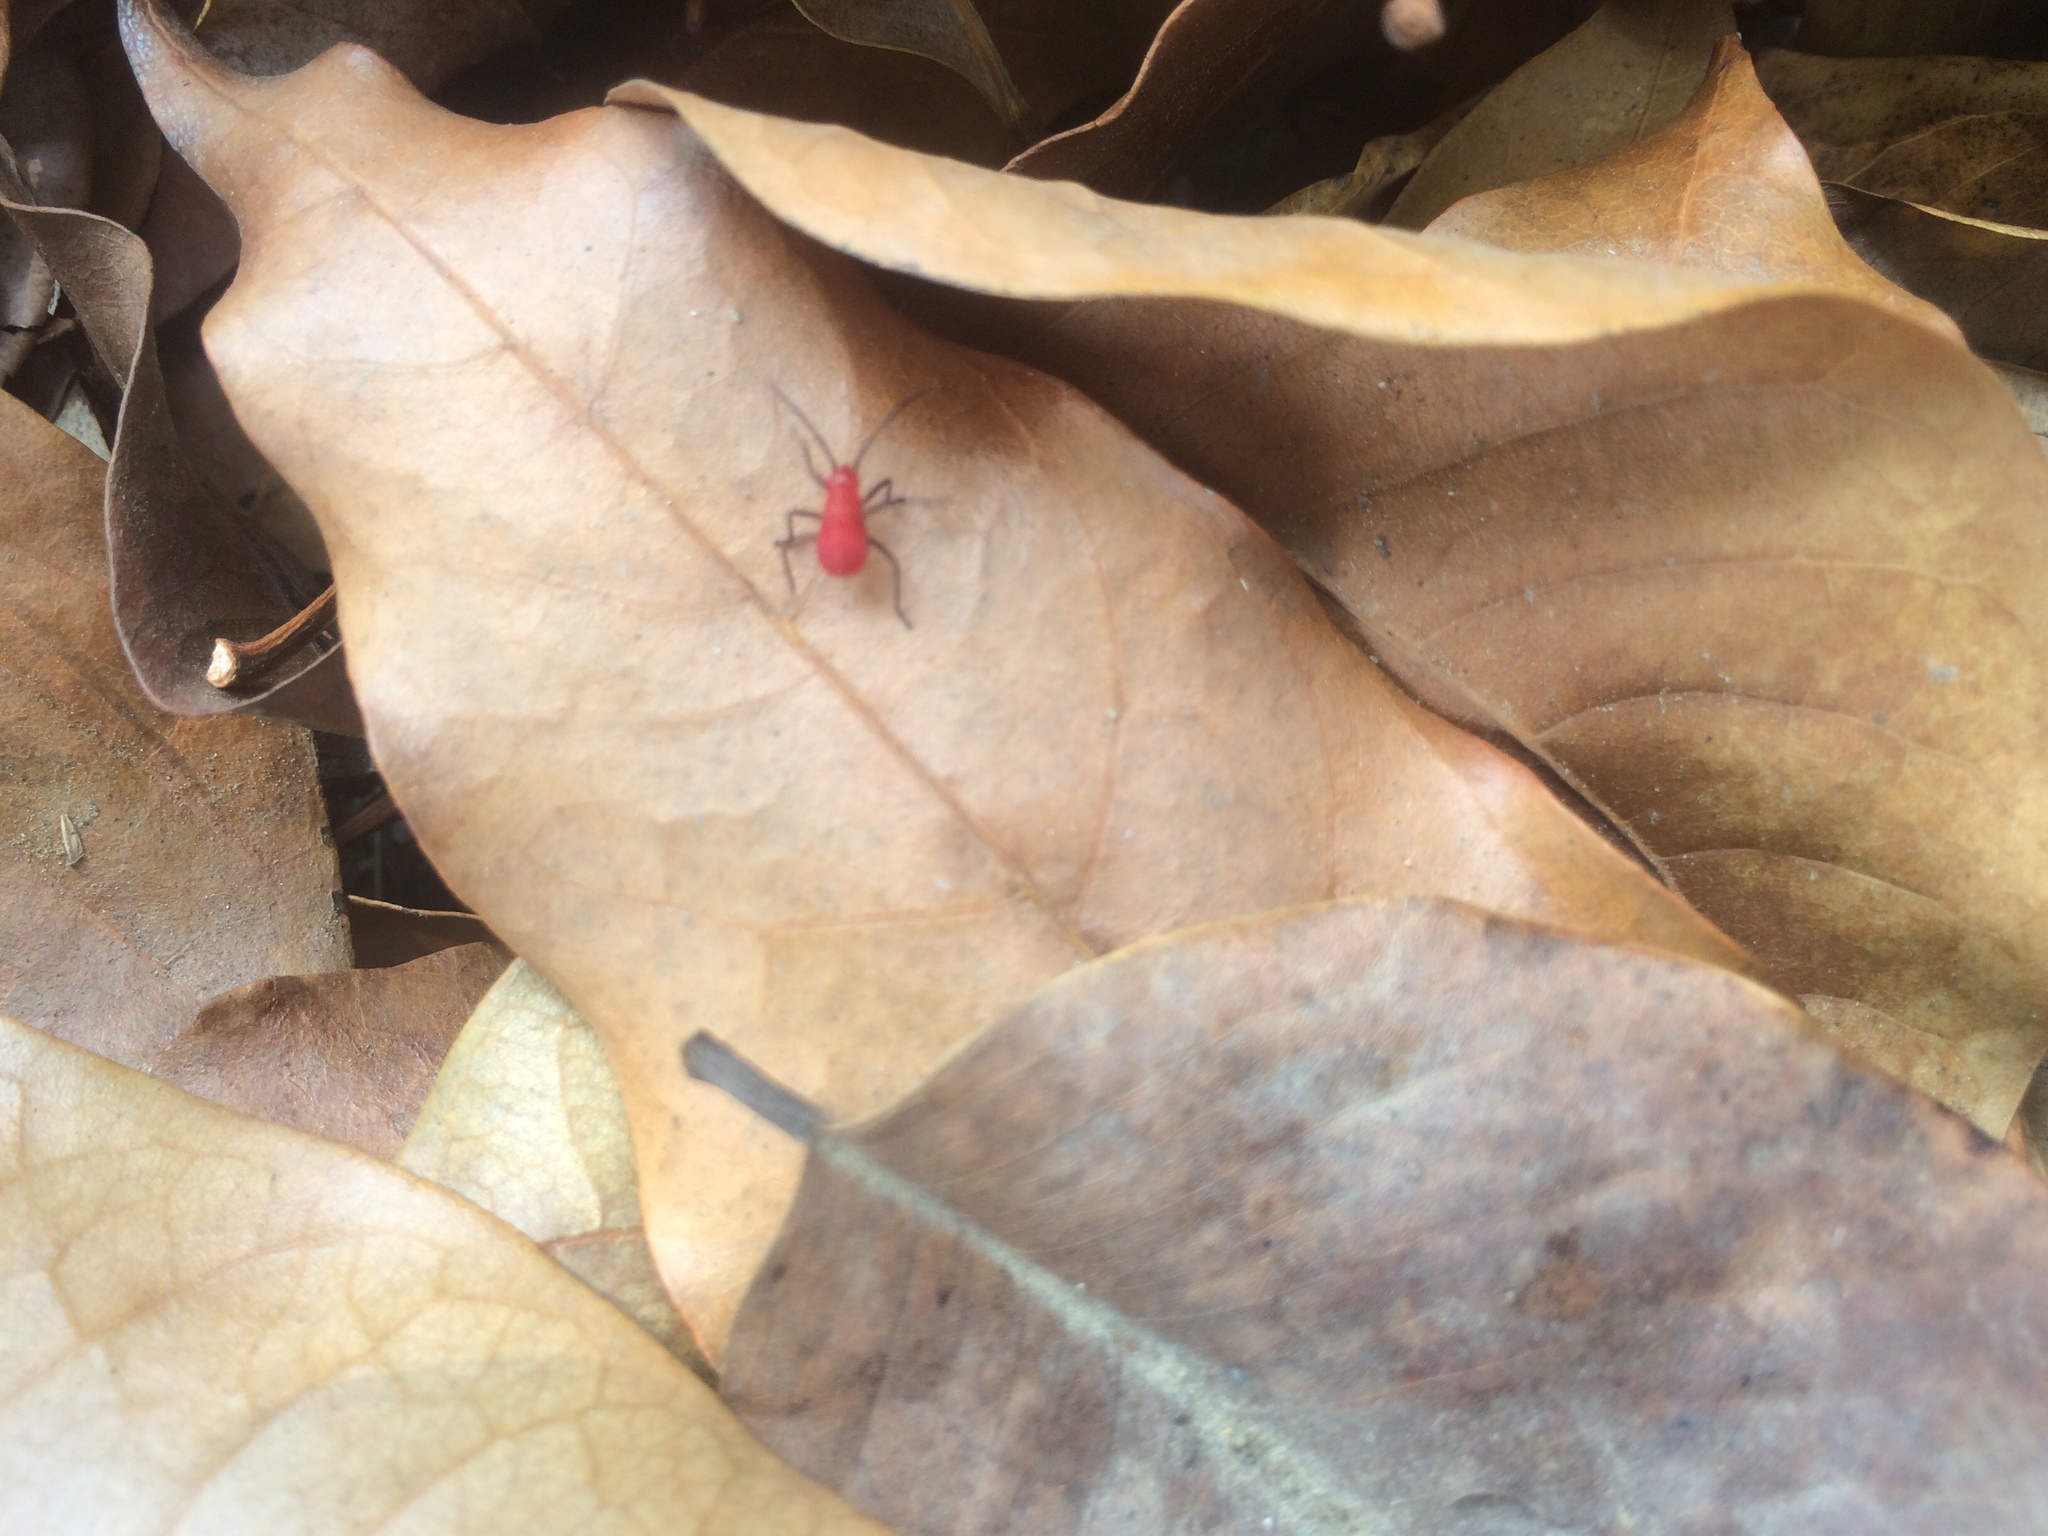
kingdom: Animalia
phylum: Arthropoda
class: Insecta
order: Hemiptera
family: Rhopalidae
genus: Leptocoris
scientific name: Leptocoris augur
